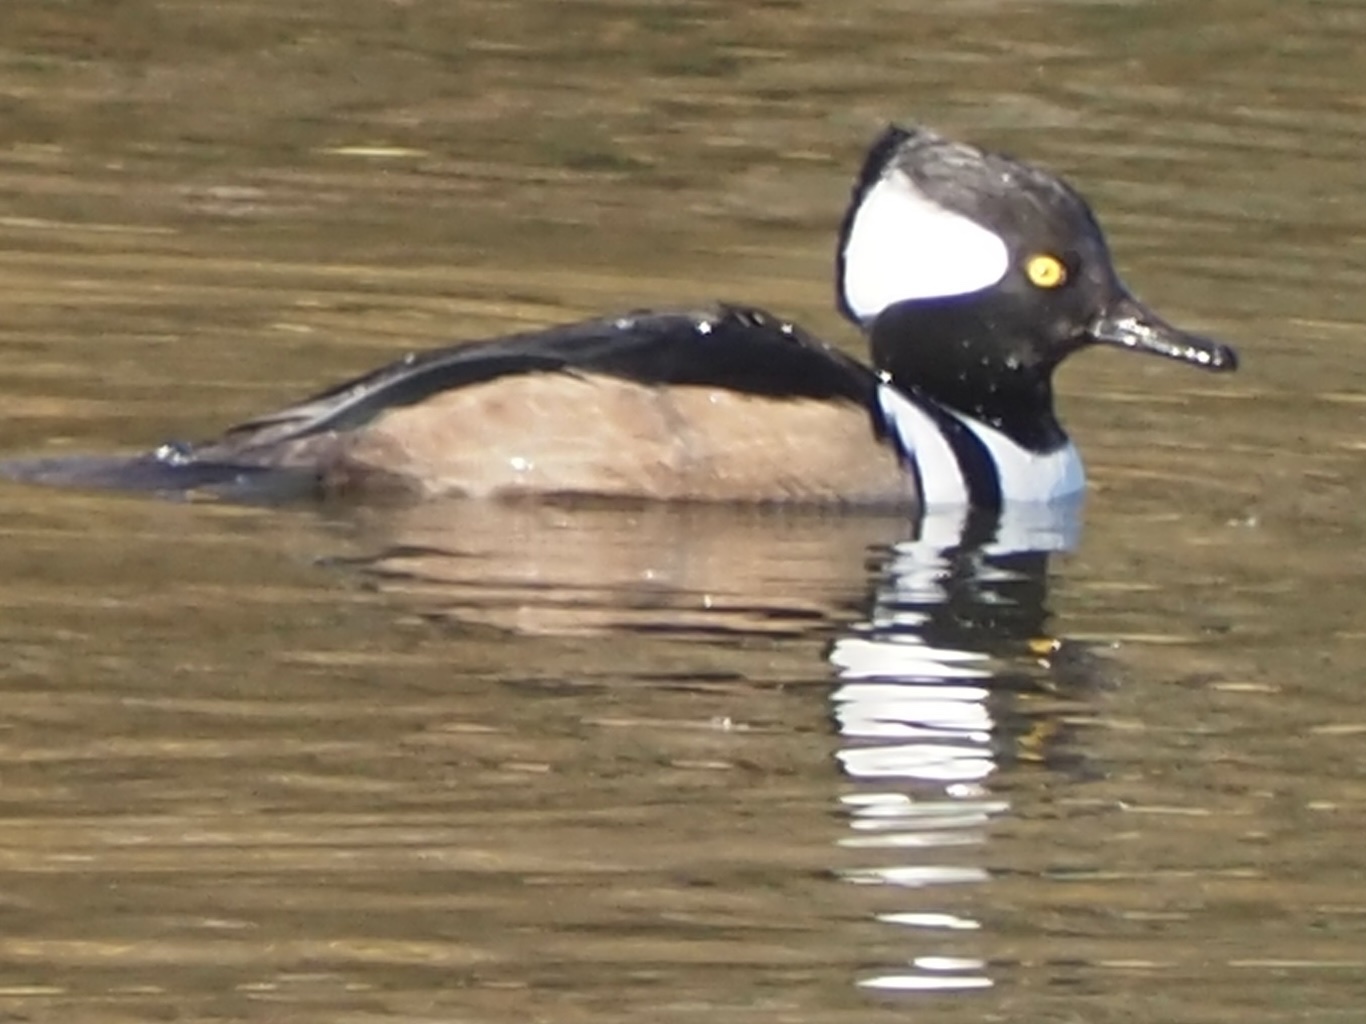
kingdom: Animalia
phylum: Chordata
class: Aves
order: Anseriformes
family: Anatidae
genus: Lophodytes
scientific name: Lophodytes cucullatus
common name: Hooded merganser
